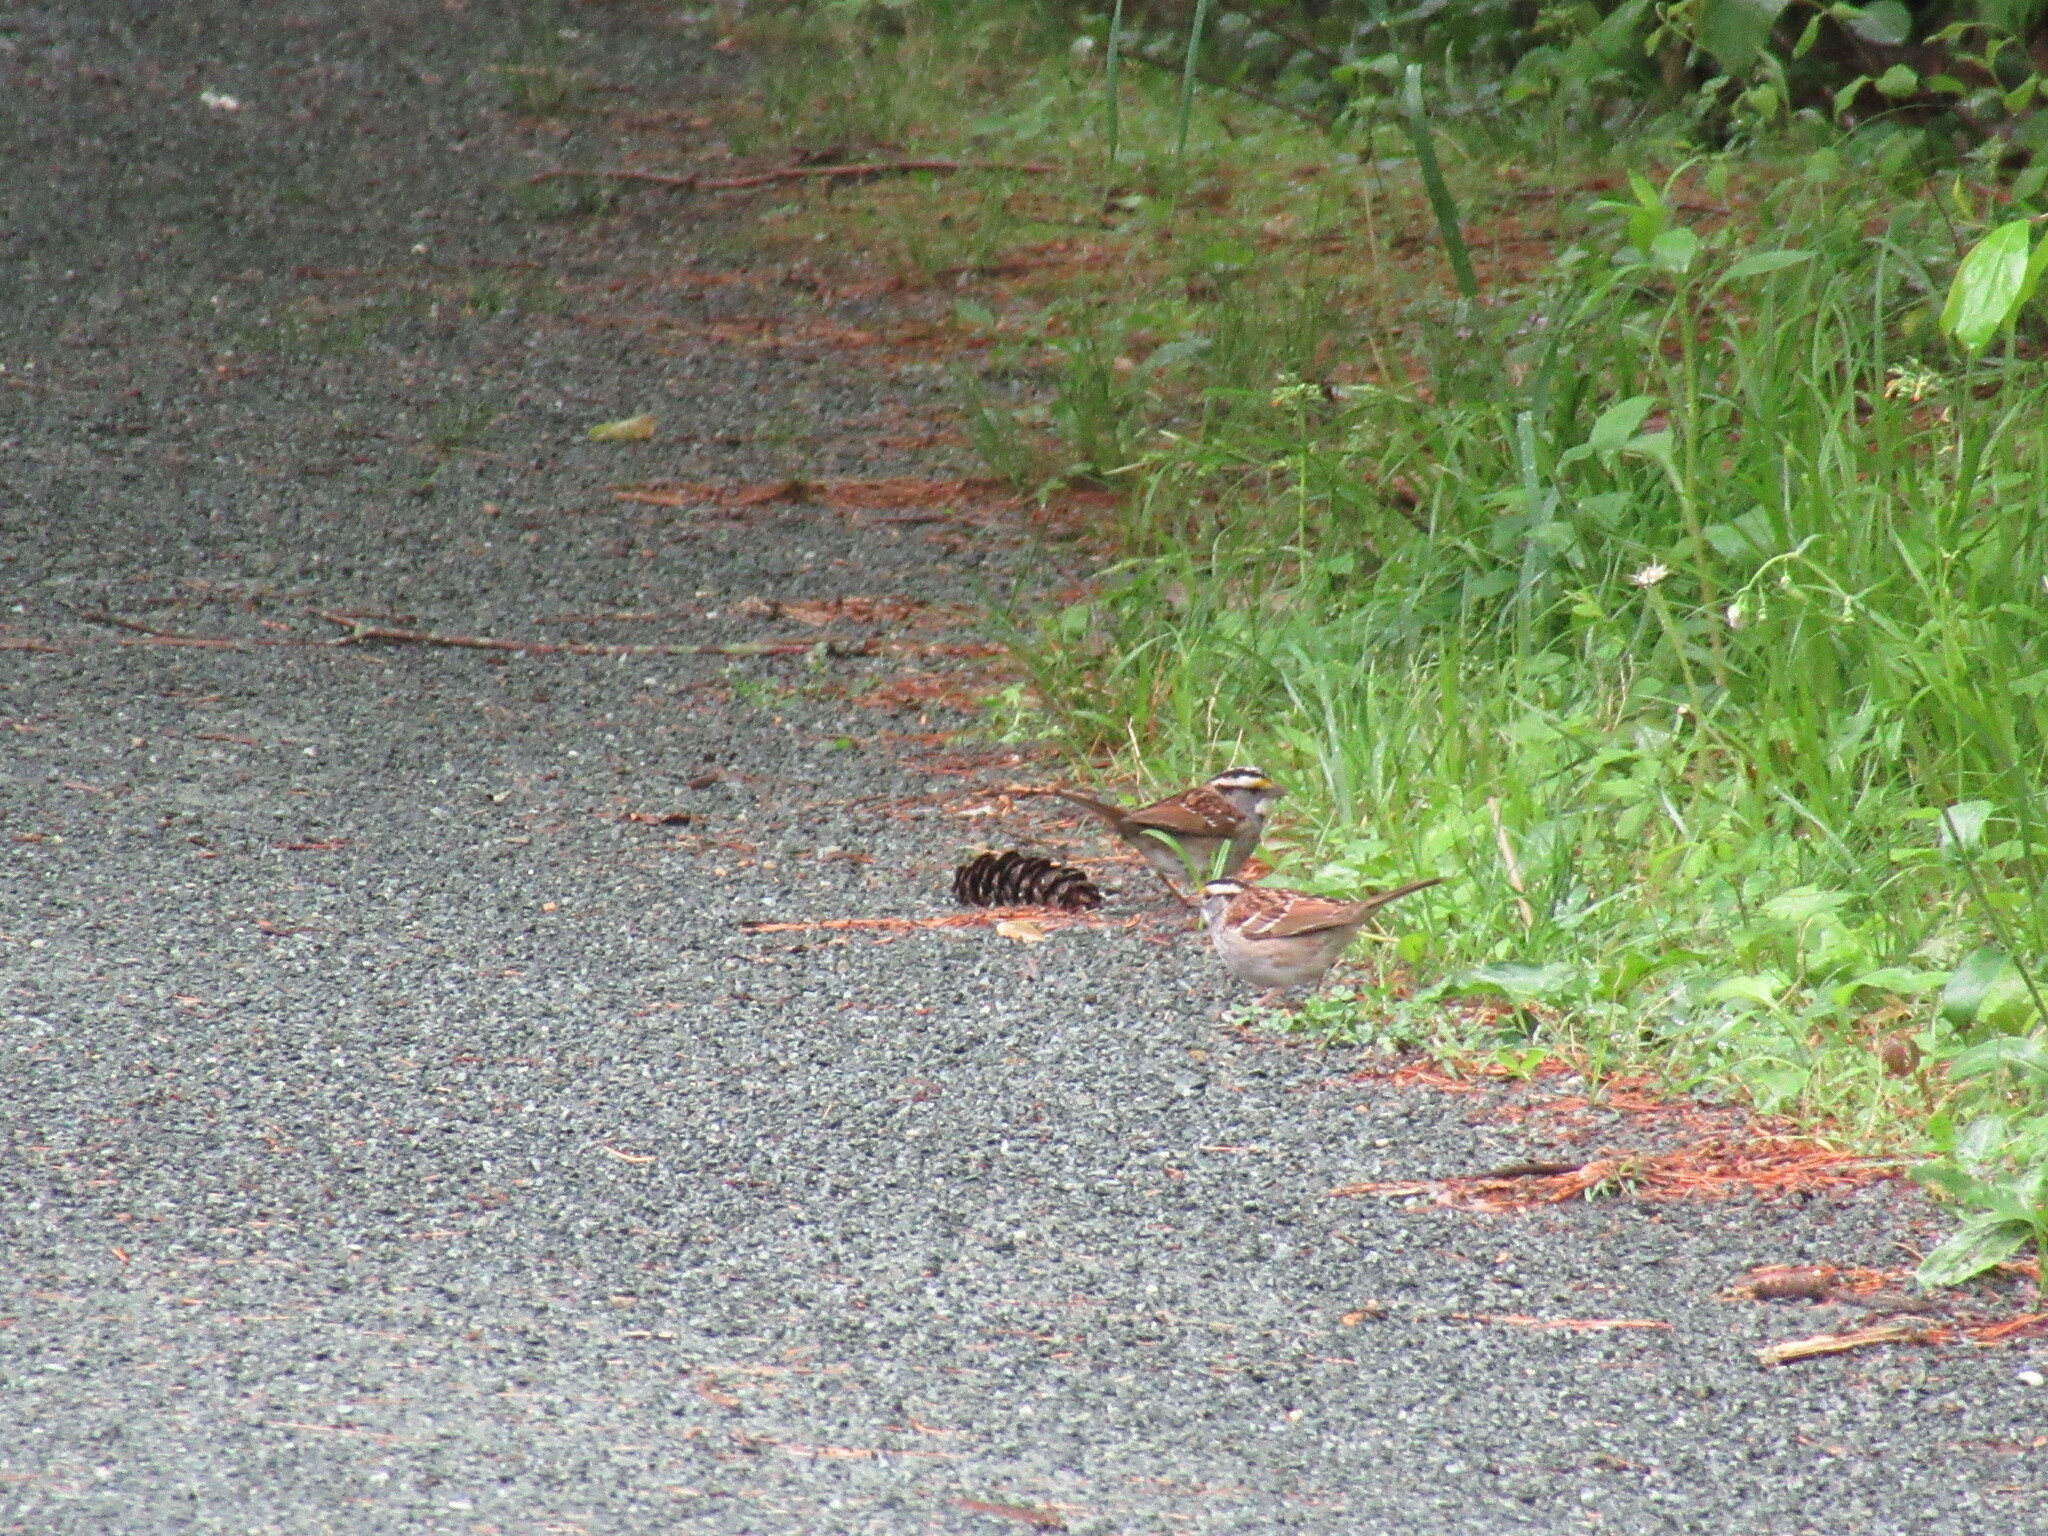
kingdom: Animalia
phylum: Chordata
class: Aves
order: Passeriformes
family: Passerellidae
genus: Zonotrichia
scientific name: Zonotrichia albicollis
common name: White-throated sparrow
